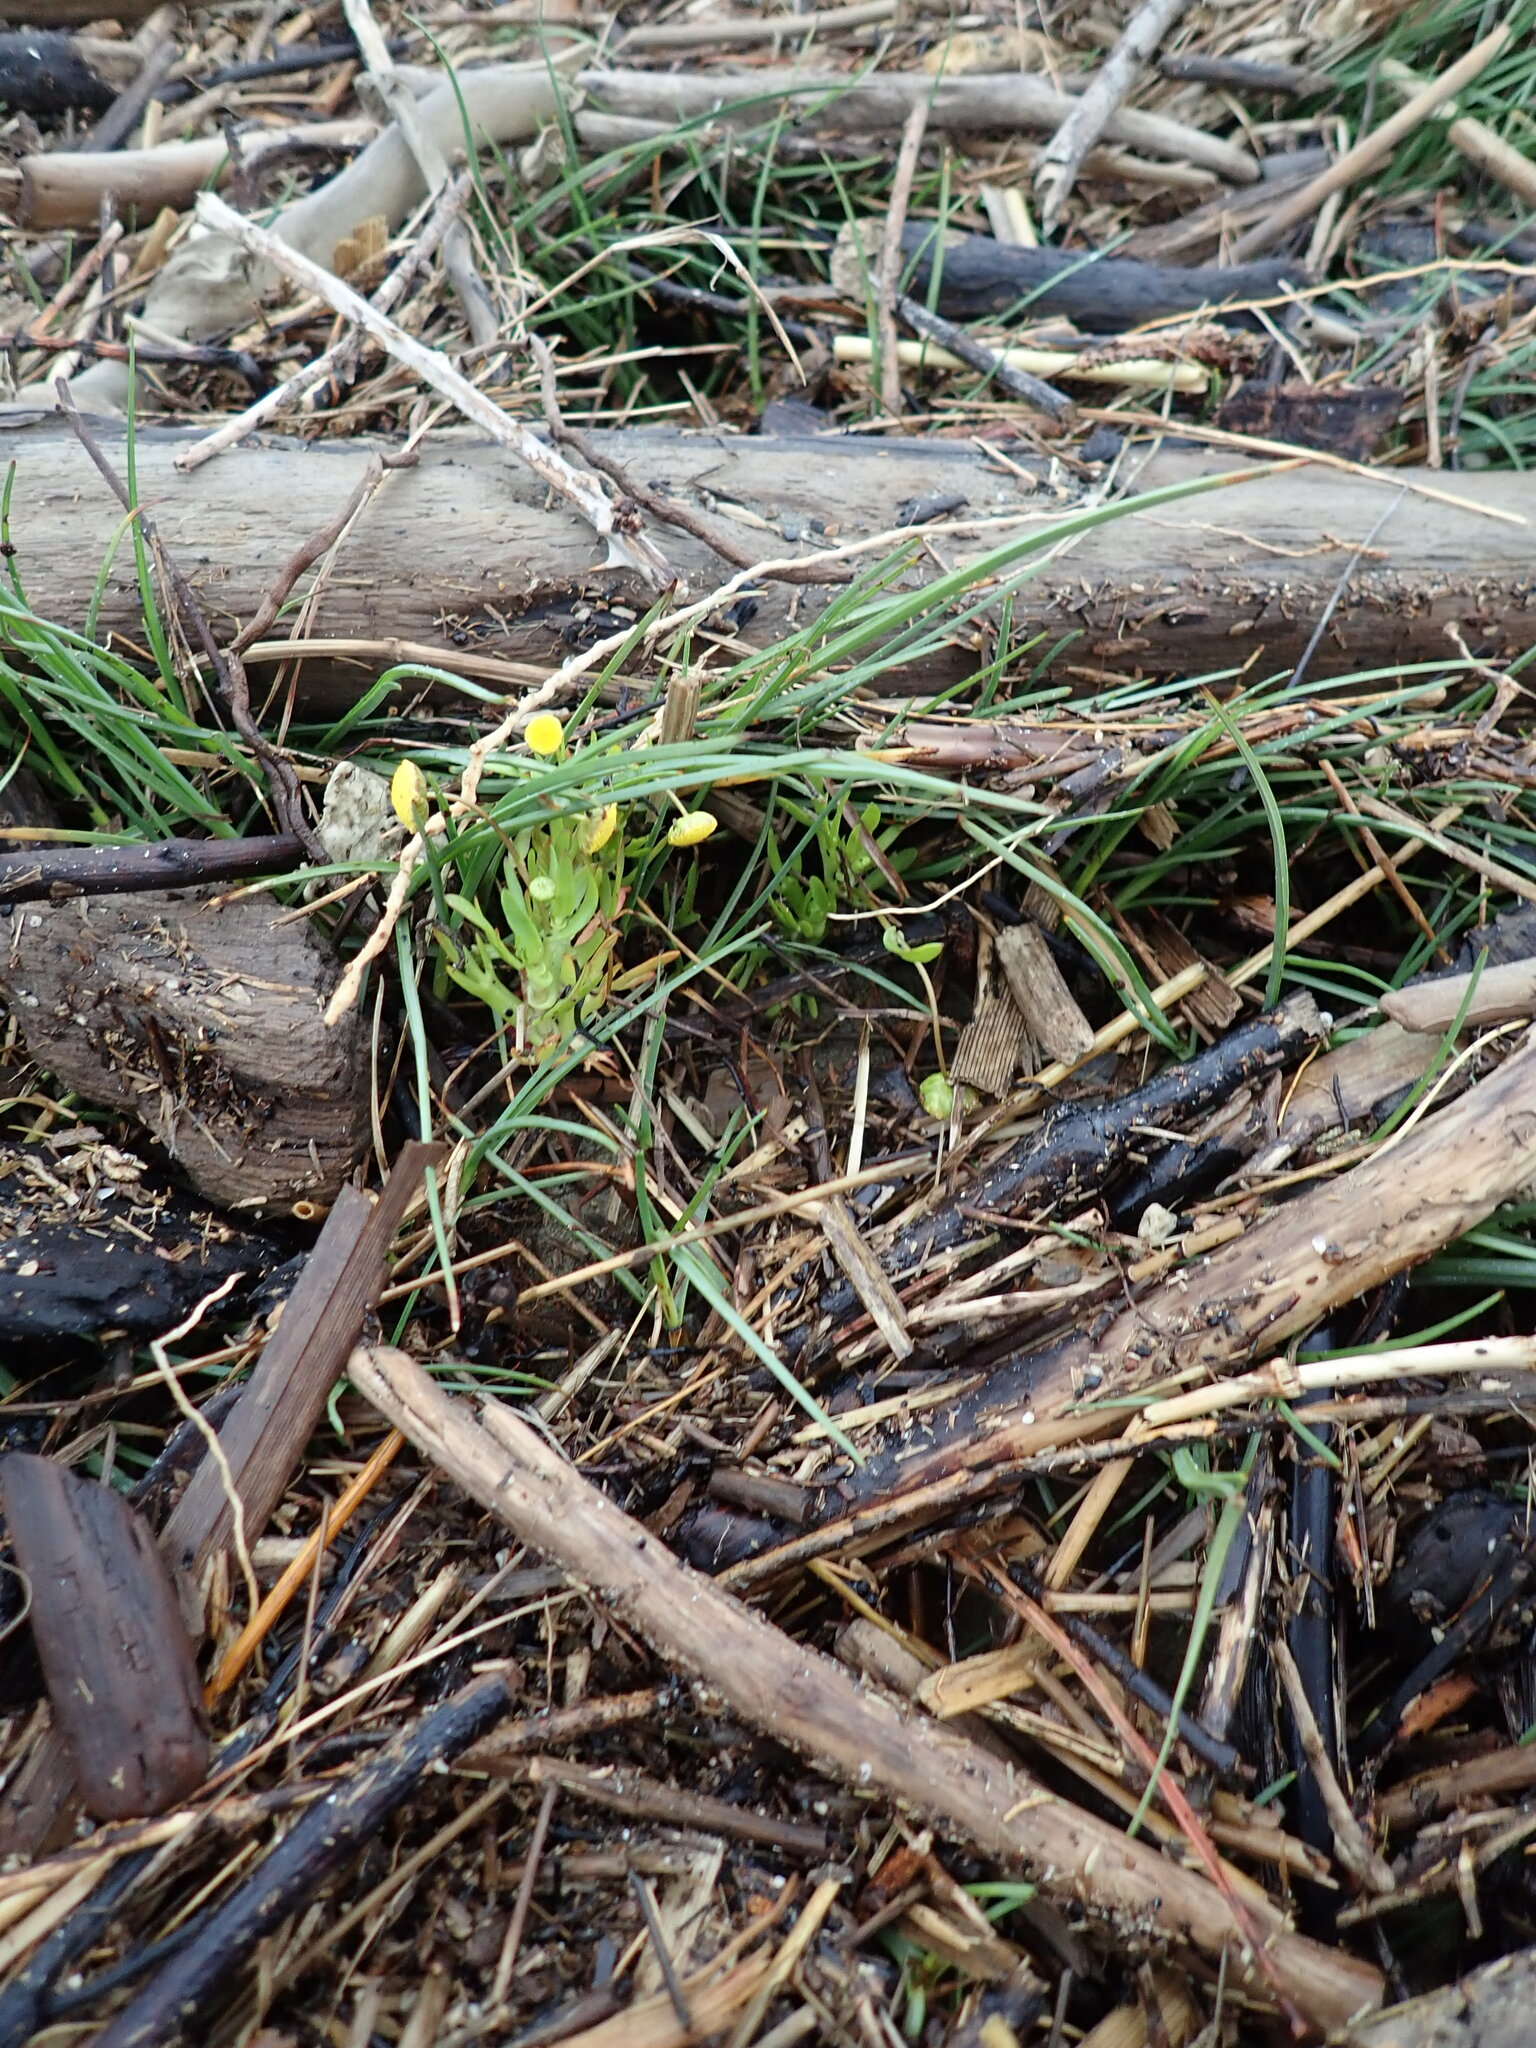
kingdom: Plantae
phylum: Tracheophyta
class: Magnoliopsida
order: Asterales
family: Asteraceae
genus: Cotula
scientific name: Cotula coronopifolia
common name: Buttonweed
